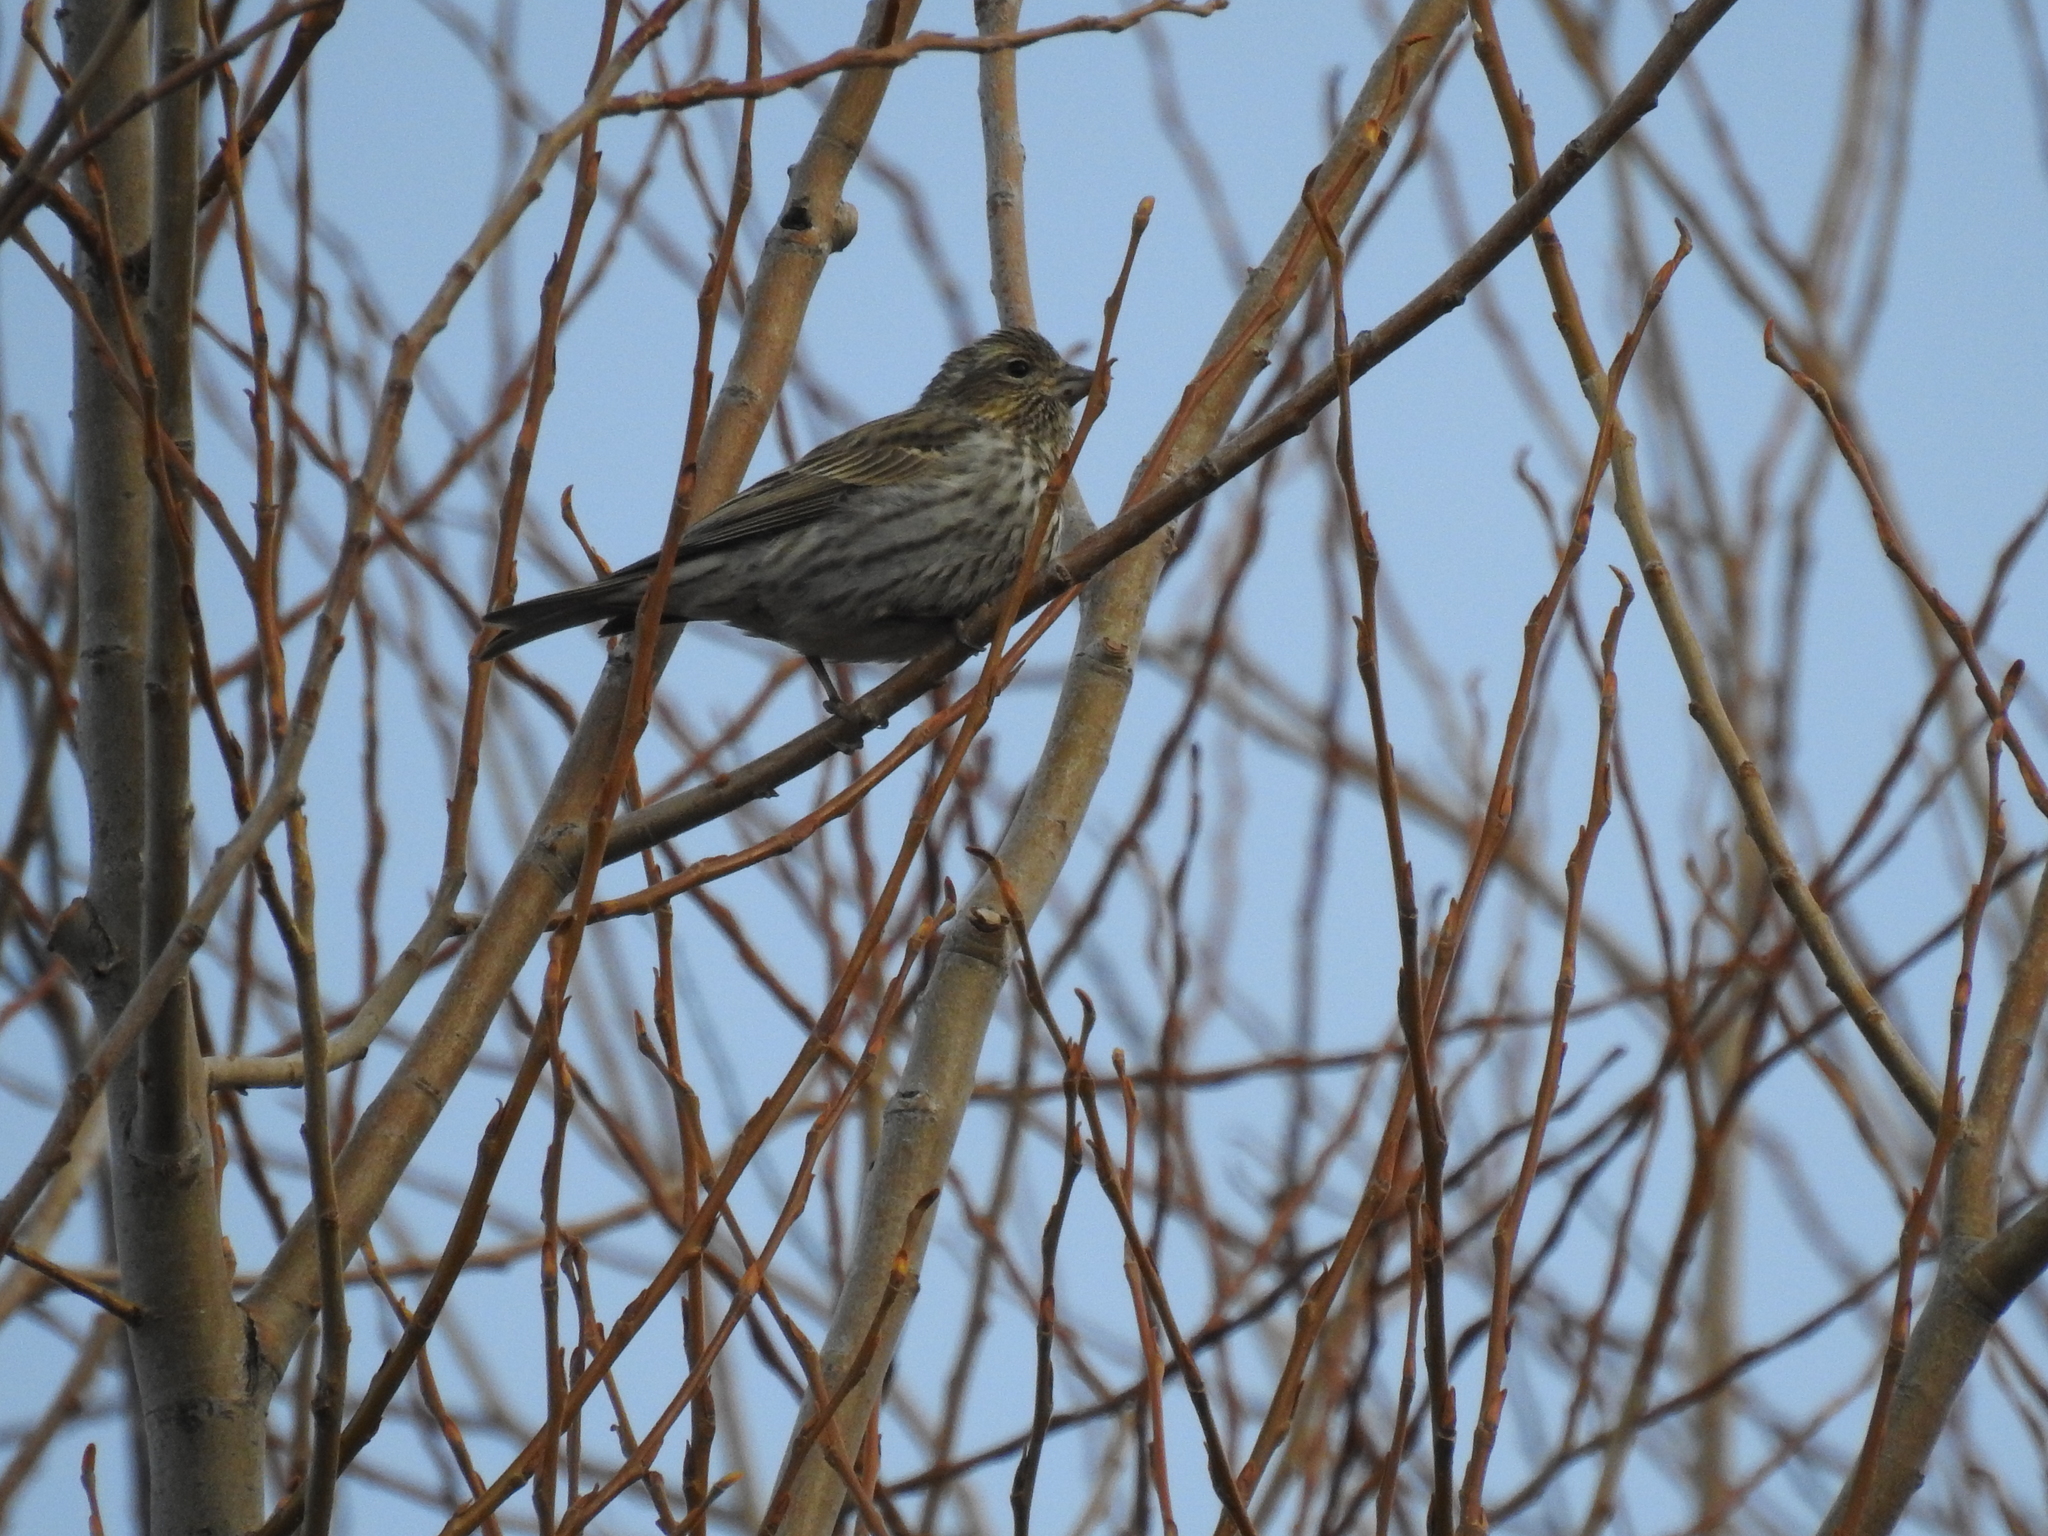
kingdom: Animalia
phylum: Chordata
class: Aves
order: Passeriformes
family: Fringillidae
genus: Haemorhous
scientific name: Haemorhous cassinii
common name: Cassin's finch
